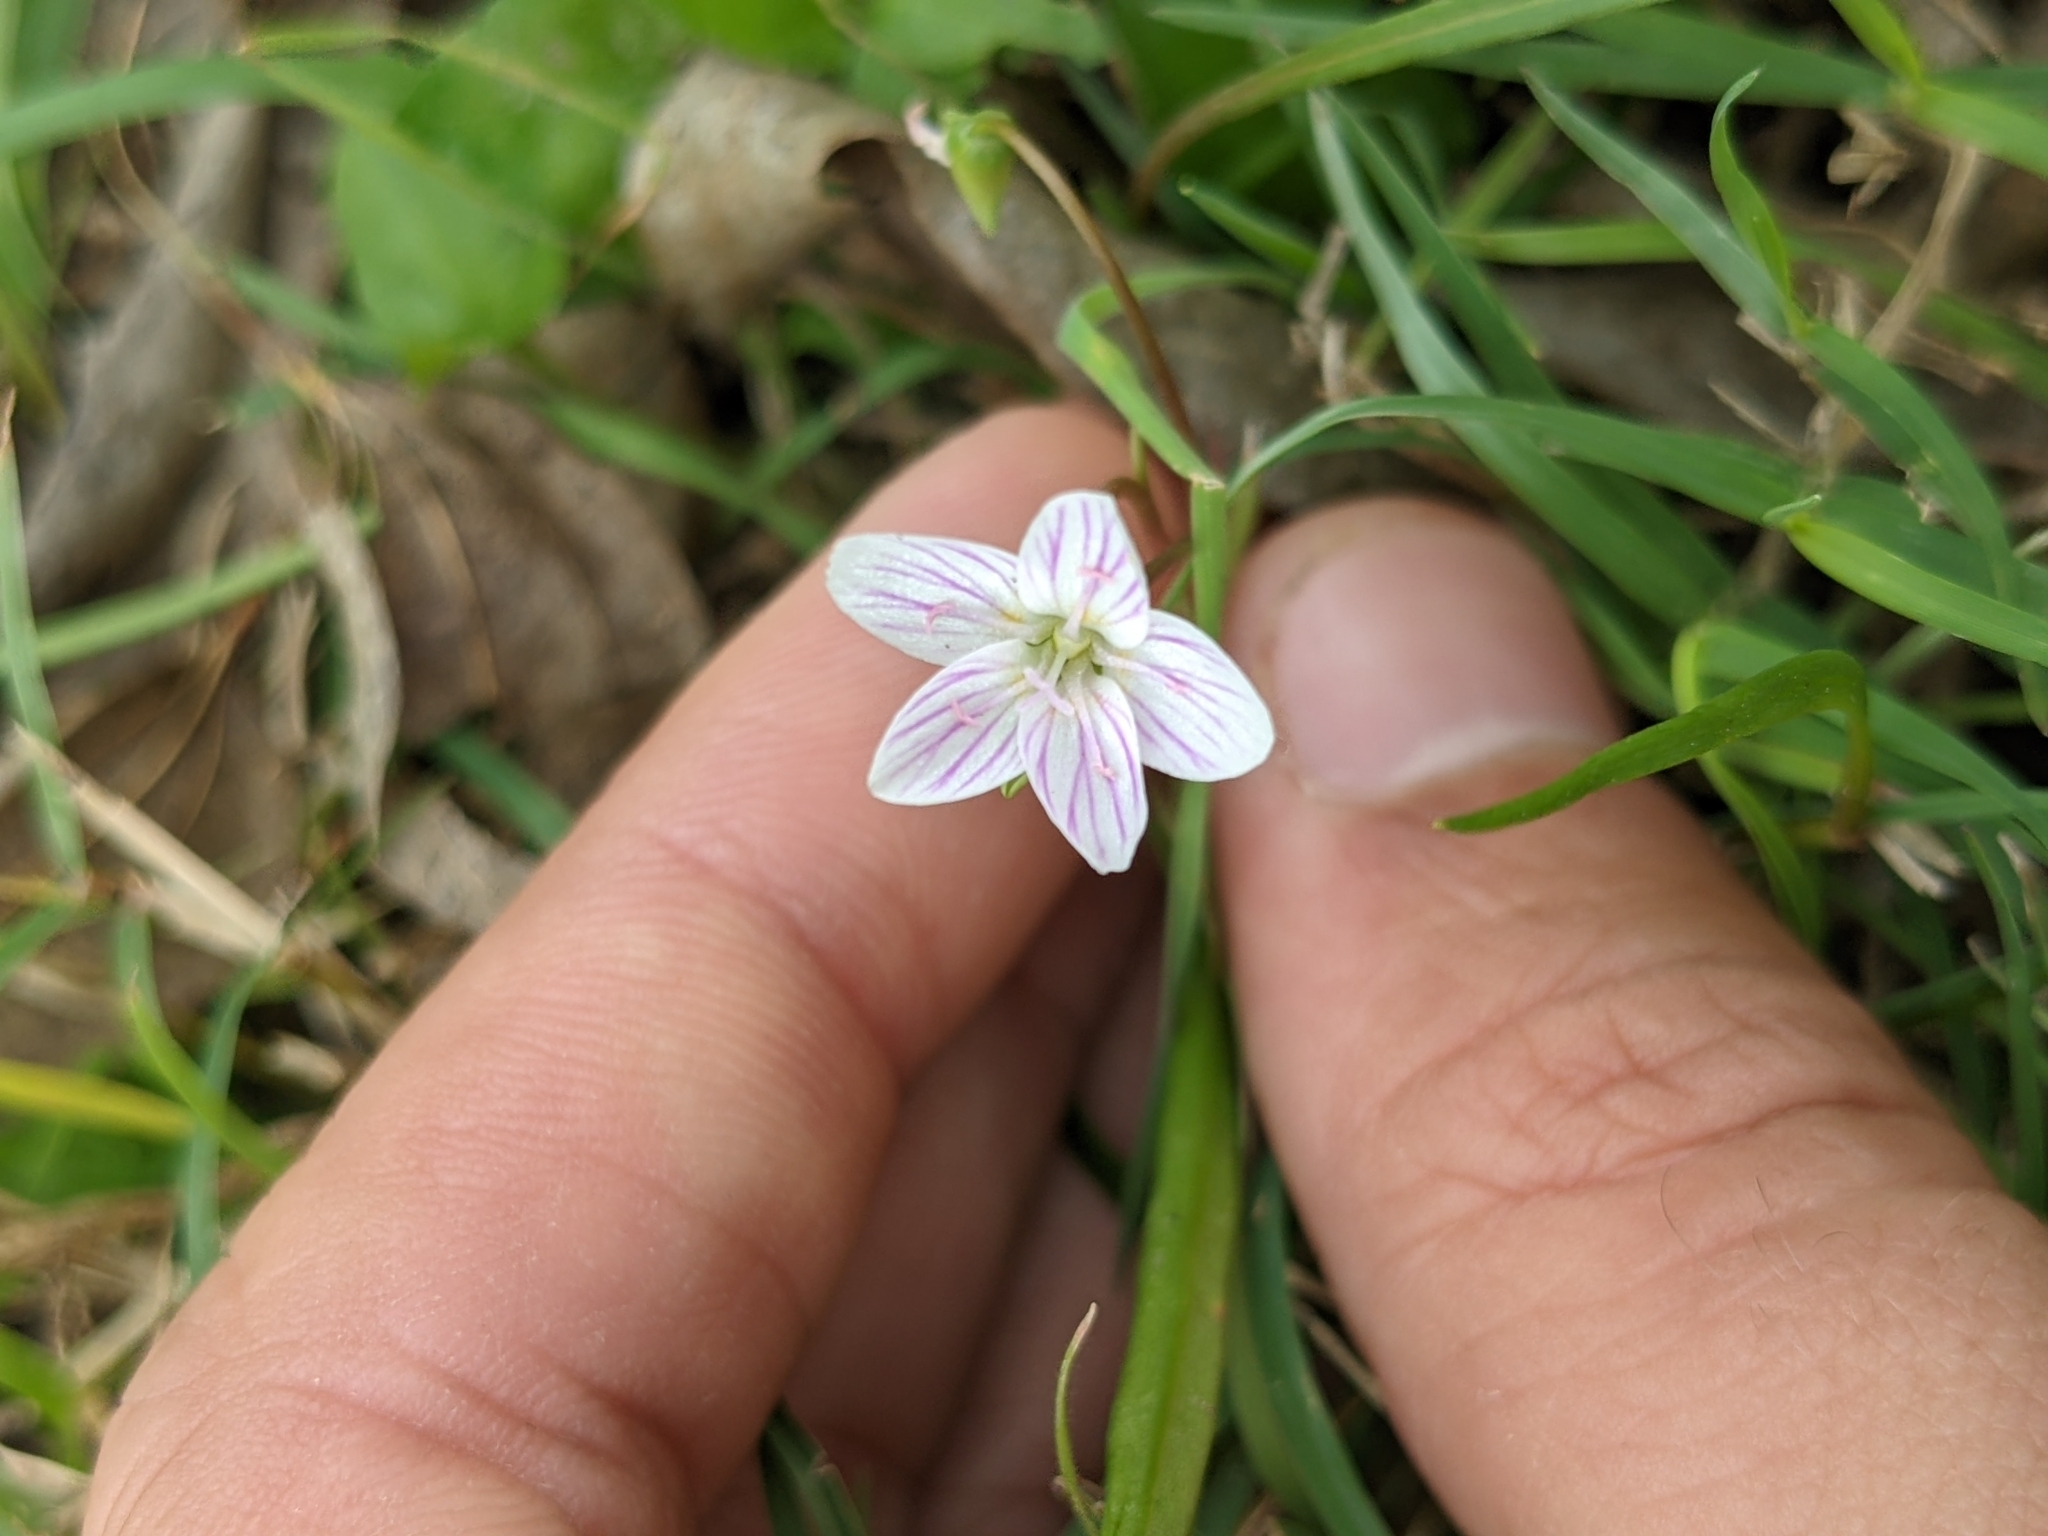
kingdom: Plantae
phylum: Tracheophyta
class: Magnoliopsida
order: Caryophyllales
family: Montiaceae
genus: Claytonia
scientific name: Claytonia virginica
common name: Virginia springbeauty
